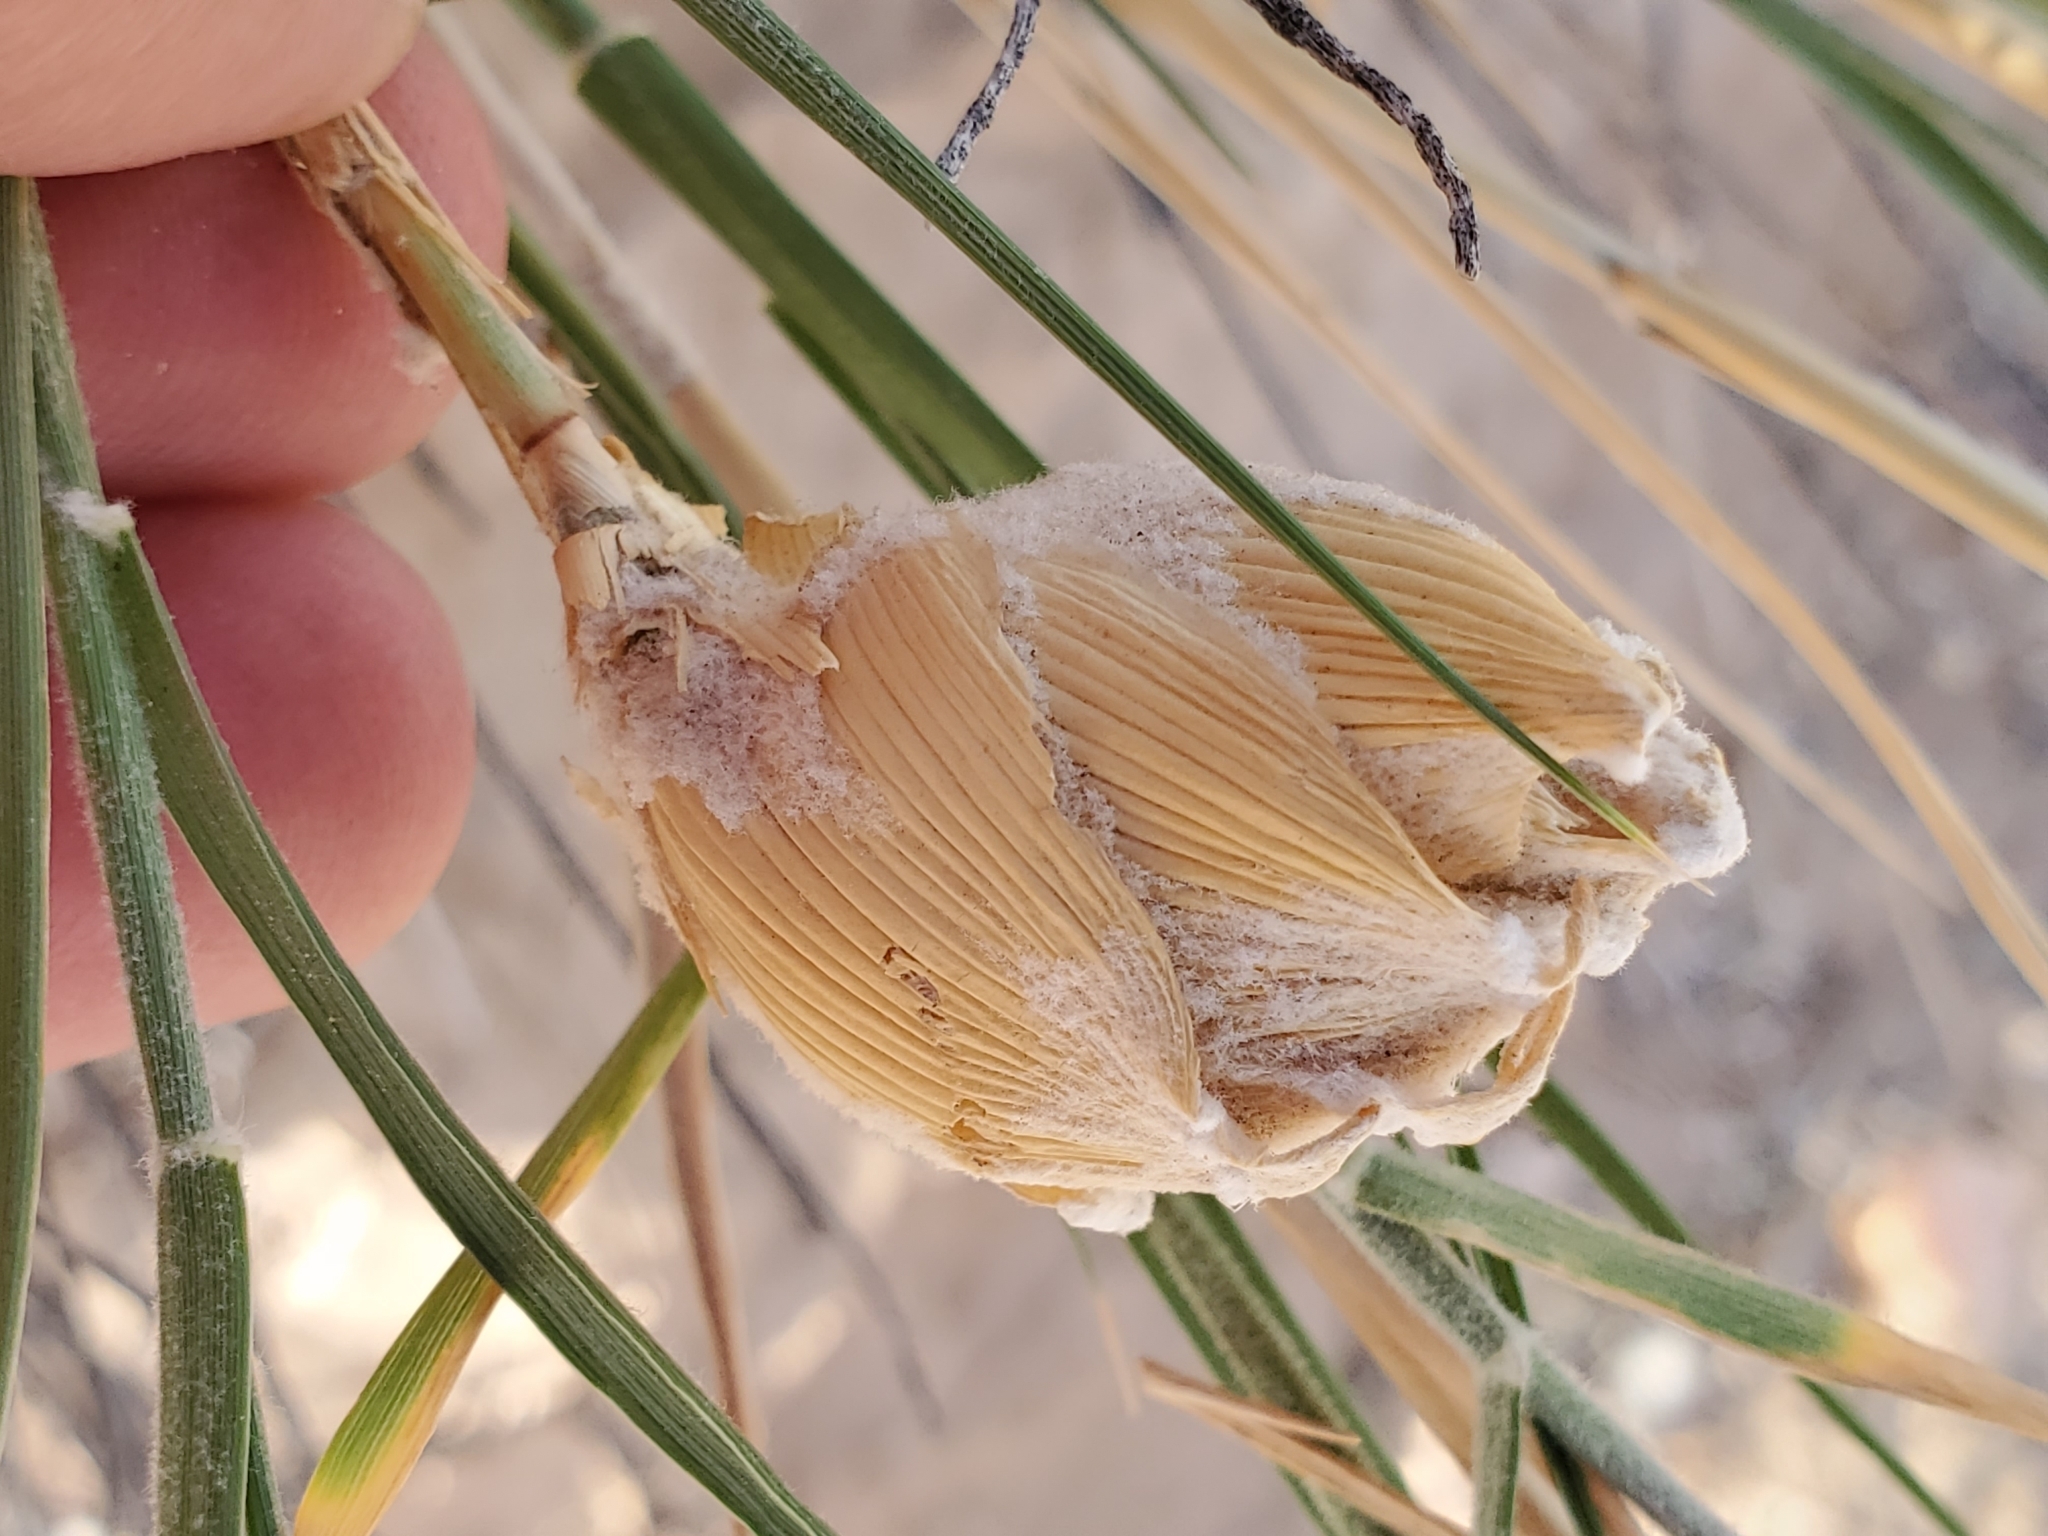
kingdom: Plantae
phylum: Tracheophyta
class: Liliopsida
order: Poales
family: Poaceae
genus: Hilaria
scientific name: Hilaria rigida
